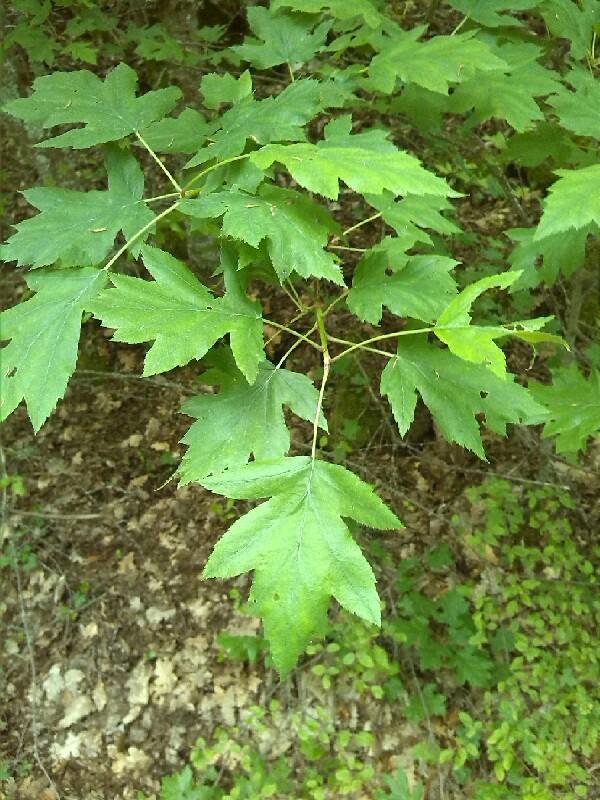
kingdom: Plantae
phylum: Tracheophyta
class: Magnoliopsida
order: Rosales
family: Rosaceae
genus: Torminalis
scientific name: Torminalis glaberrima
